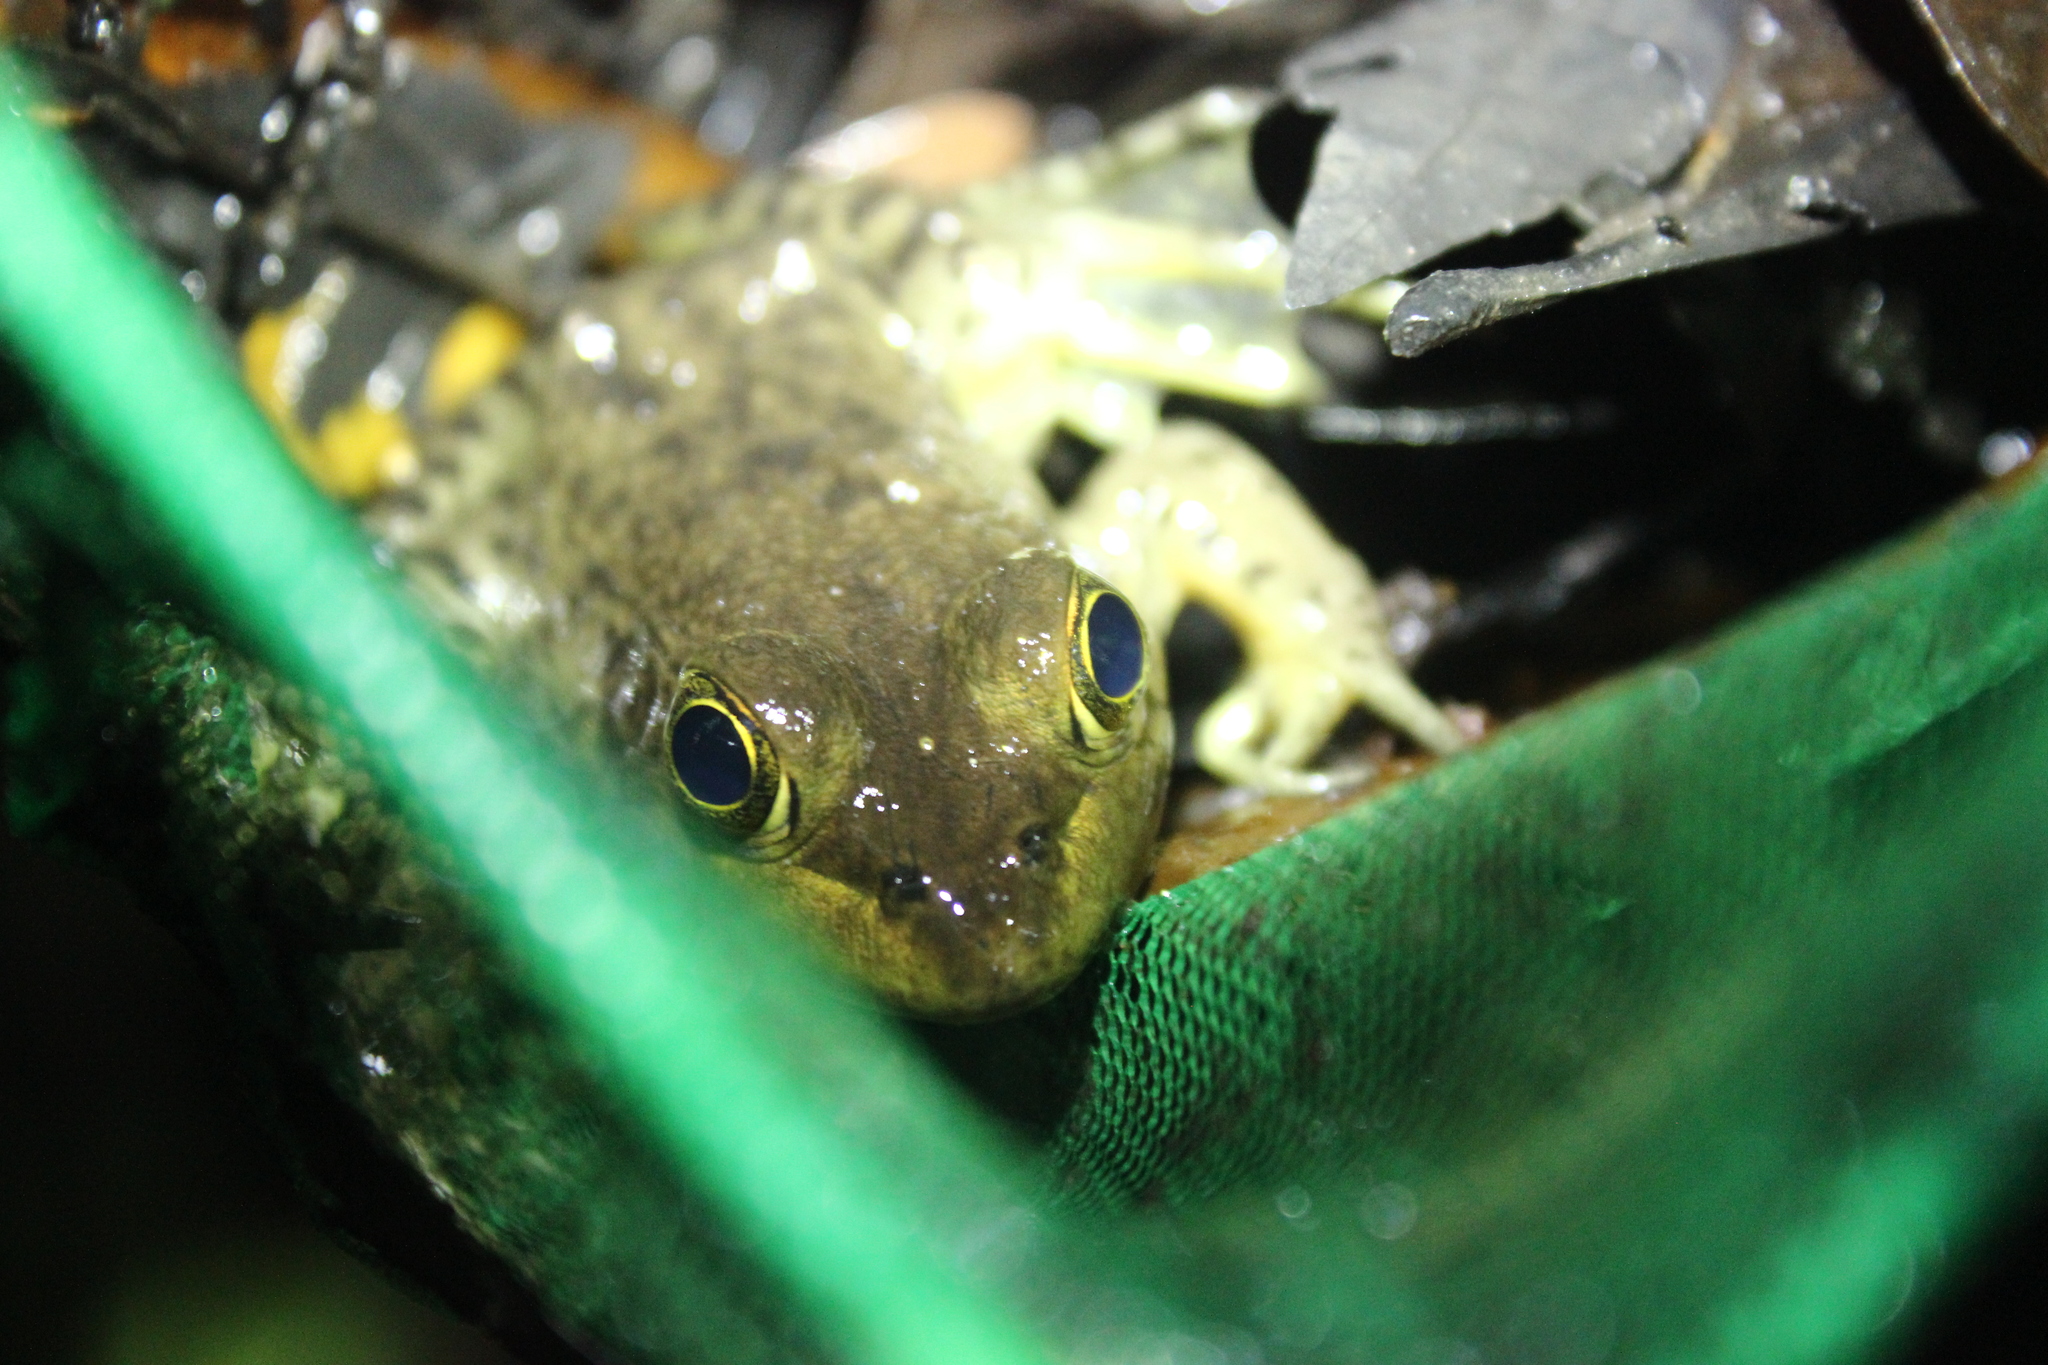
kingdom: Animalia
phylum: Chordata
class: Amphibia
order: Anura
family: Ranidae
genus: Lithobates
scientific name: Lithobates catesbeianus
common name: American bullfrog
